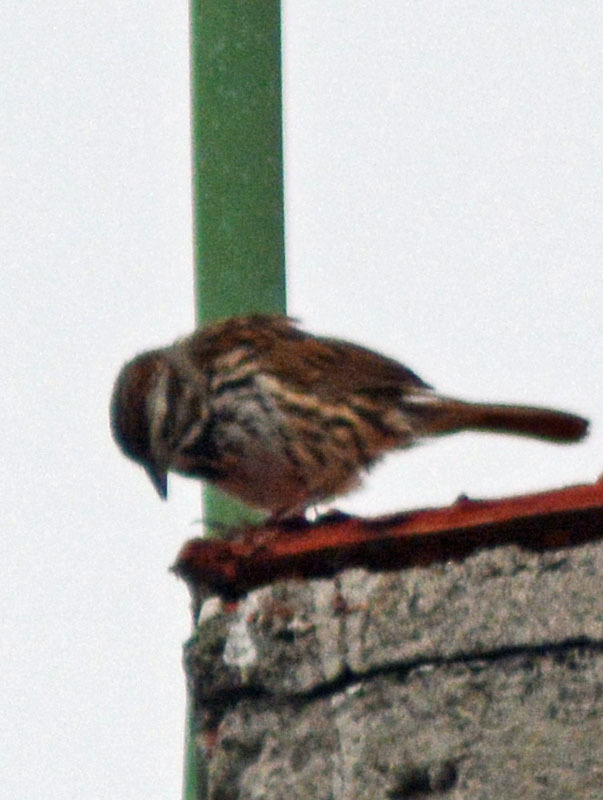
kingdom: Animalia
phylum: Chordata
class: Aves
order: Passeriformes
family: Passerellidae
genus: Melospiza
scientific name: Melospiza melodia
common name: Song sparrow
